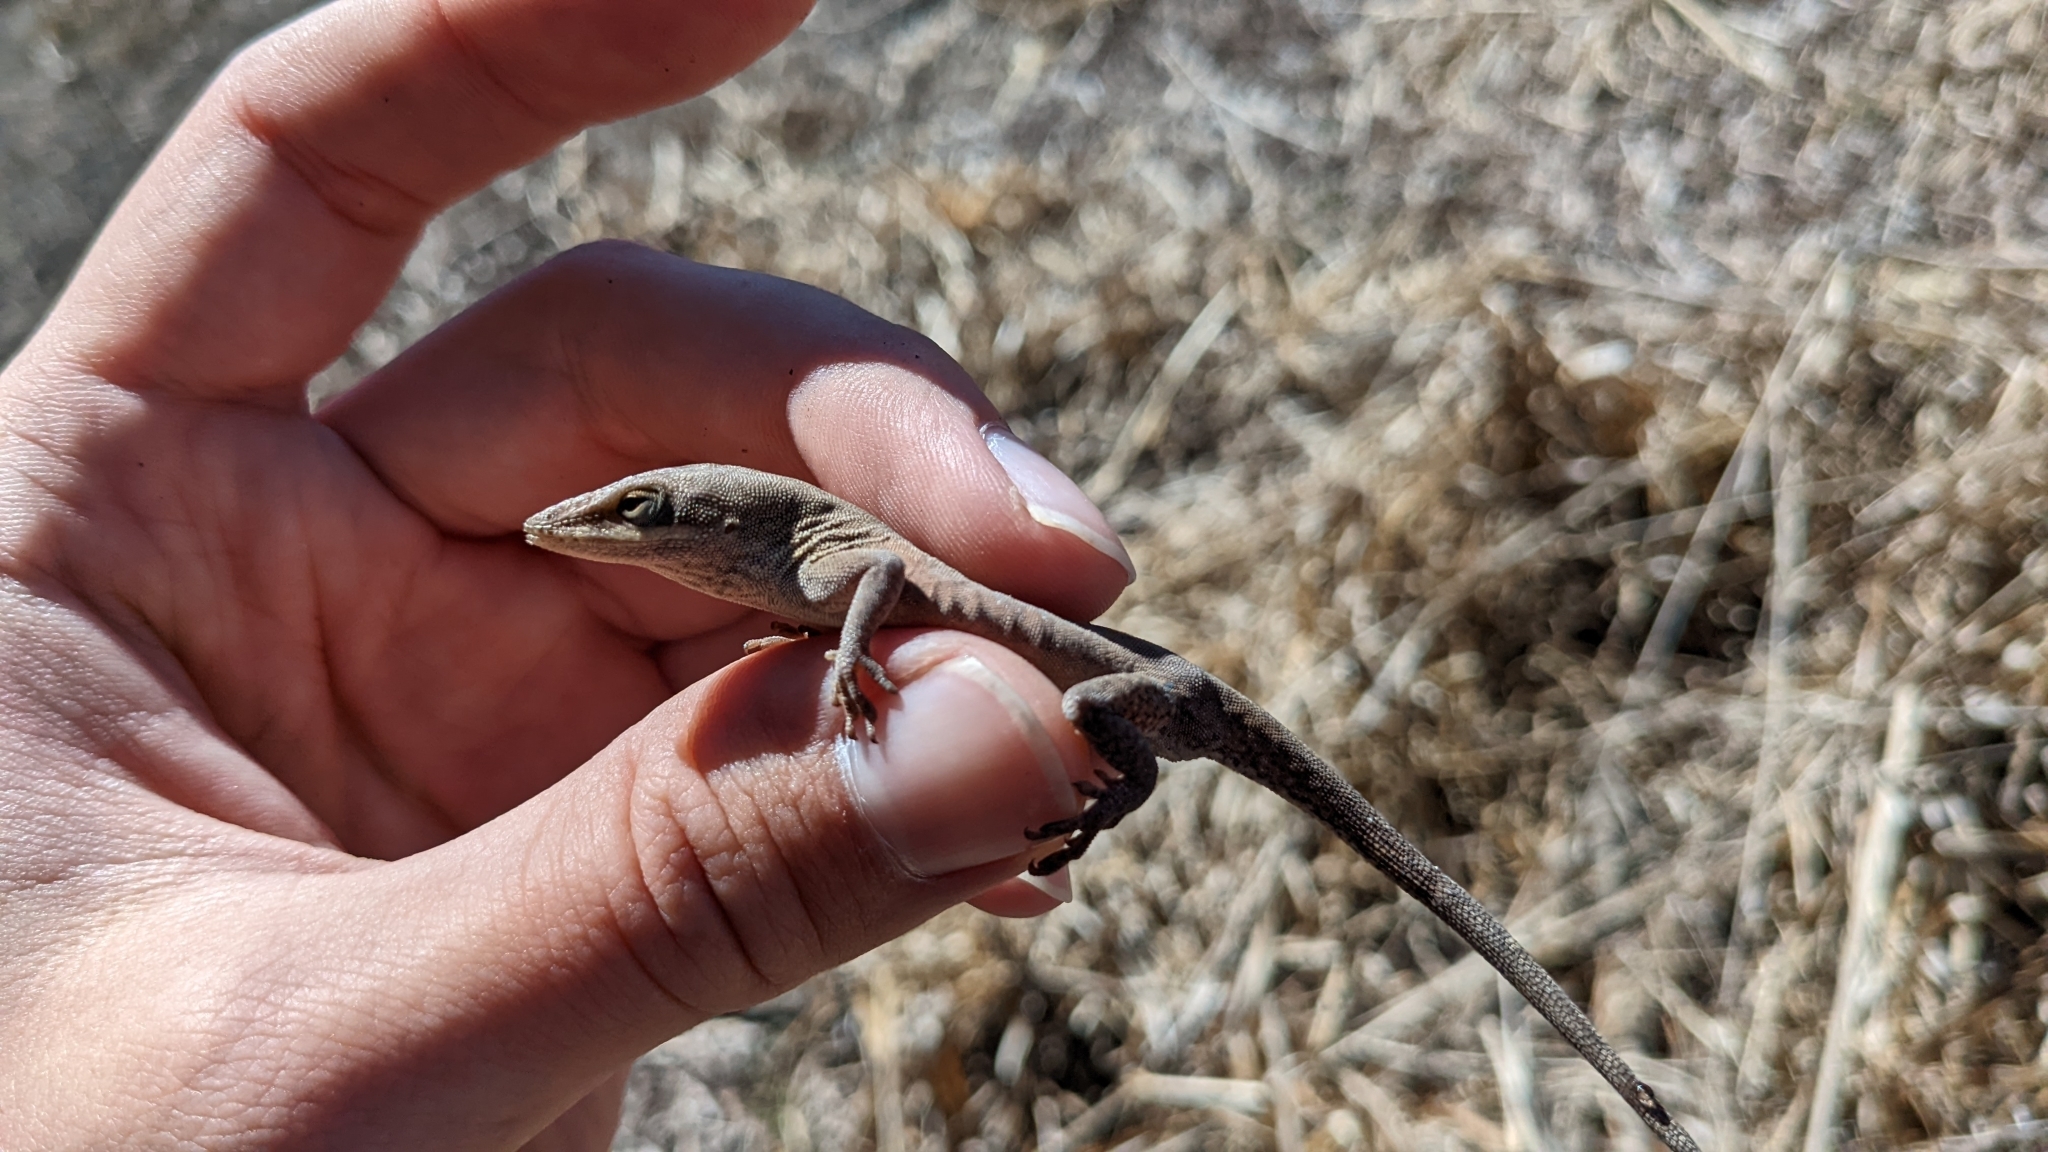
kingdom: Animalia
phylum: Chordata
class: Squamata
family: Dactyloidae
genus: Anolis
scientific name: Anolis carolinensis
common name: Green anole
